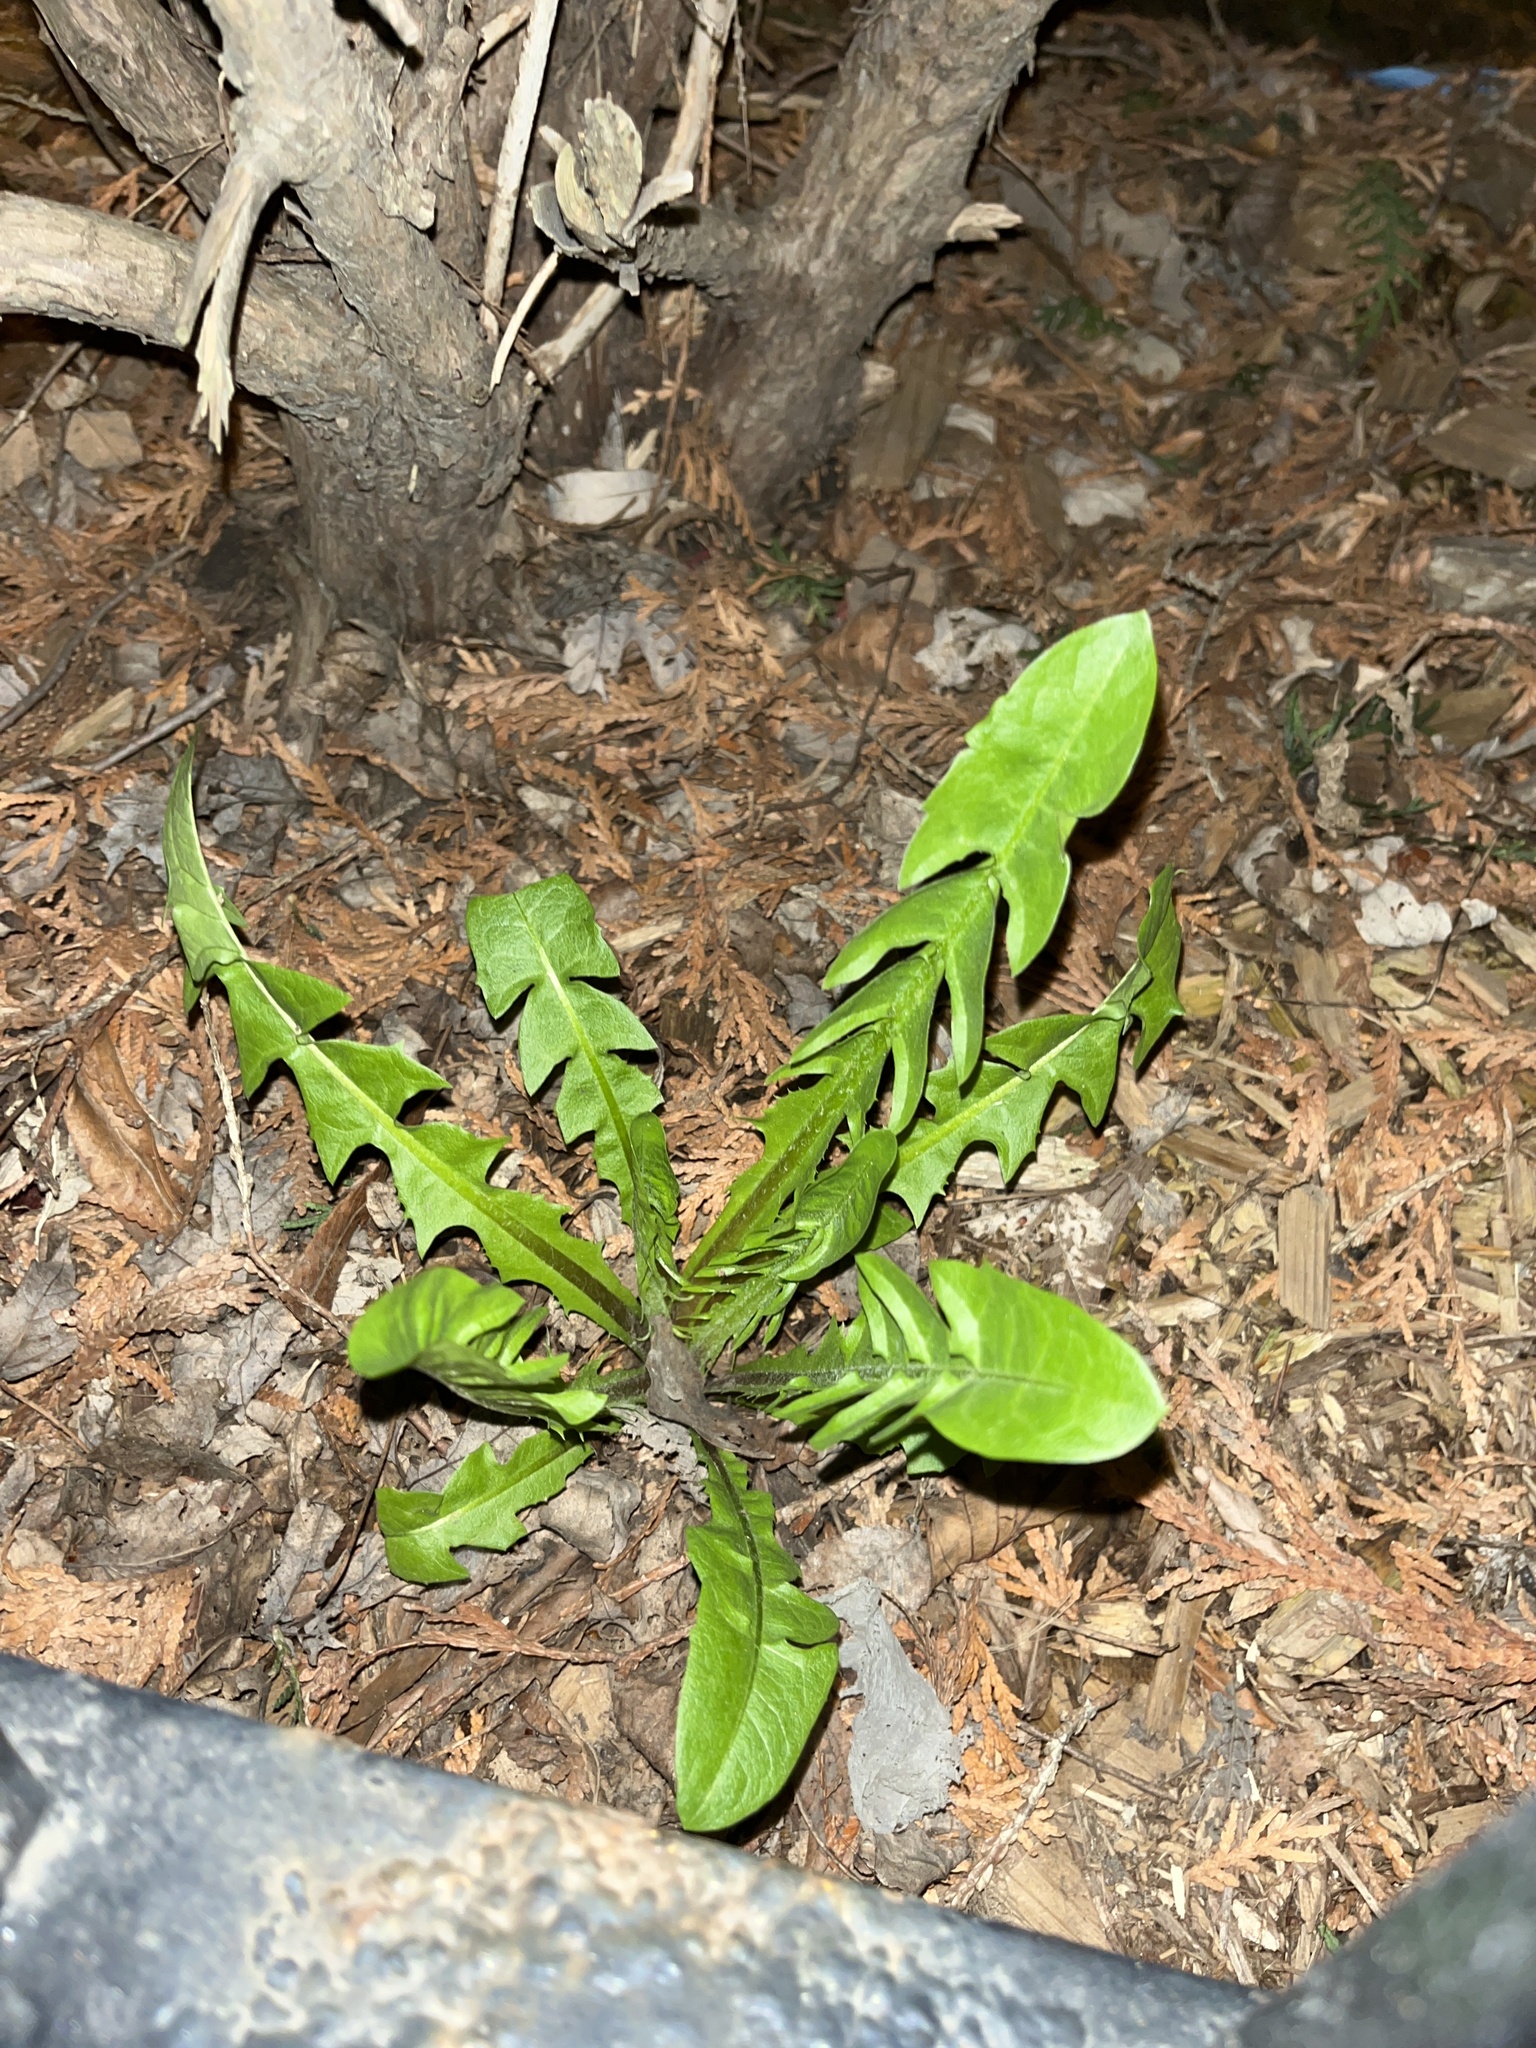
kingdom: Plantae
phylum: Tracheophyta
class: Magnoliopsida
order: Asterales
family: Asteraceae
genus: Taraxacum
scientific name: Taraxacum officinale
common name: Common dandelion
